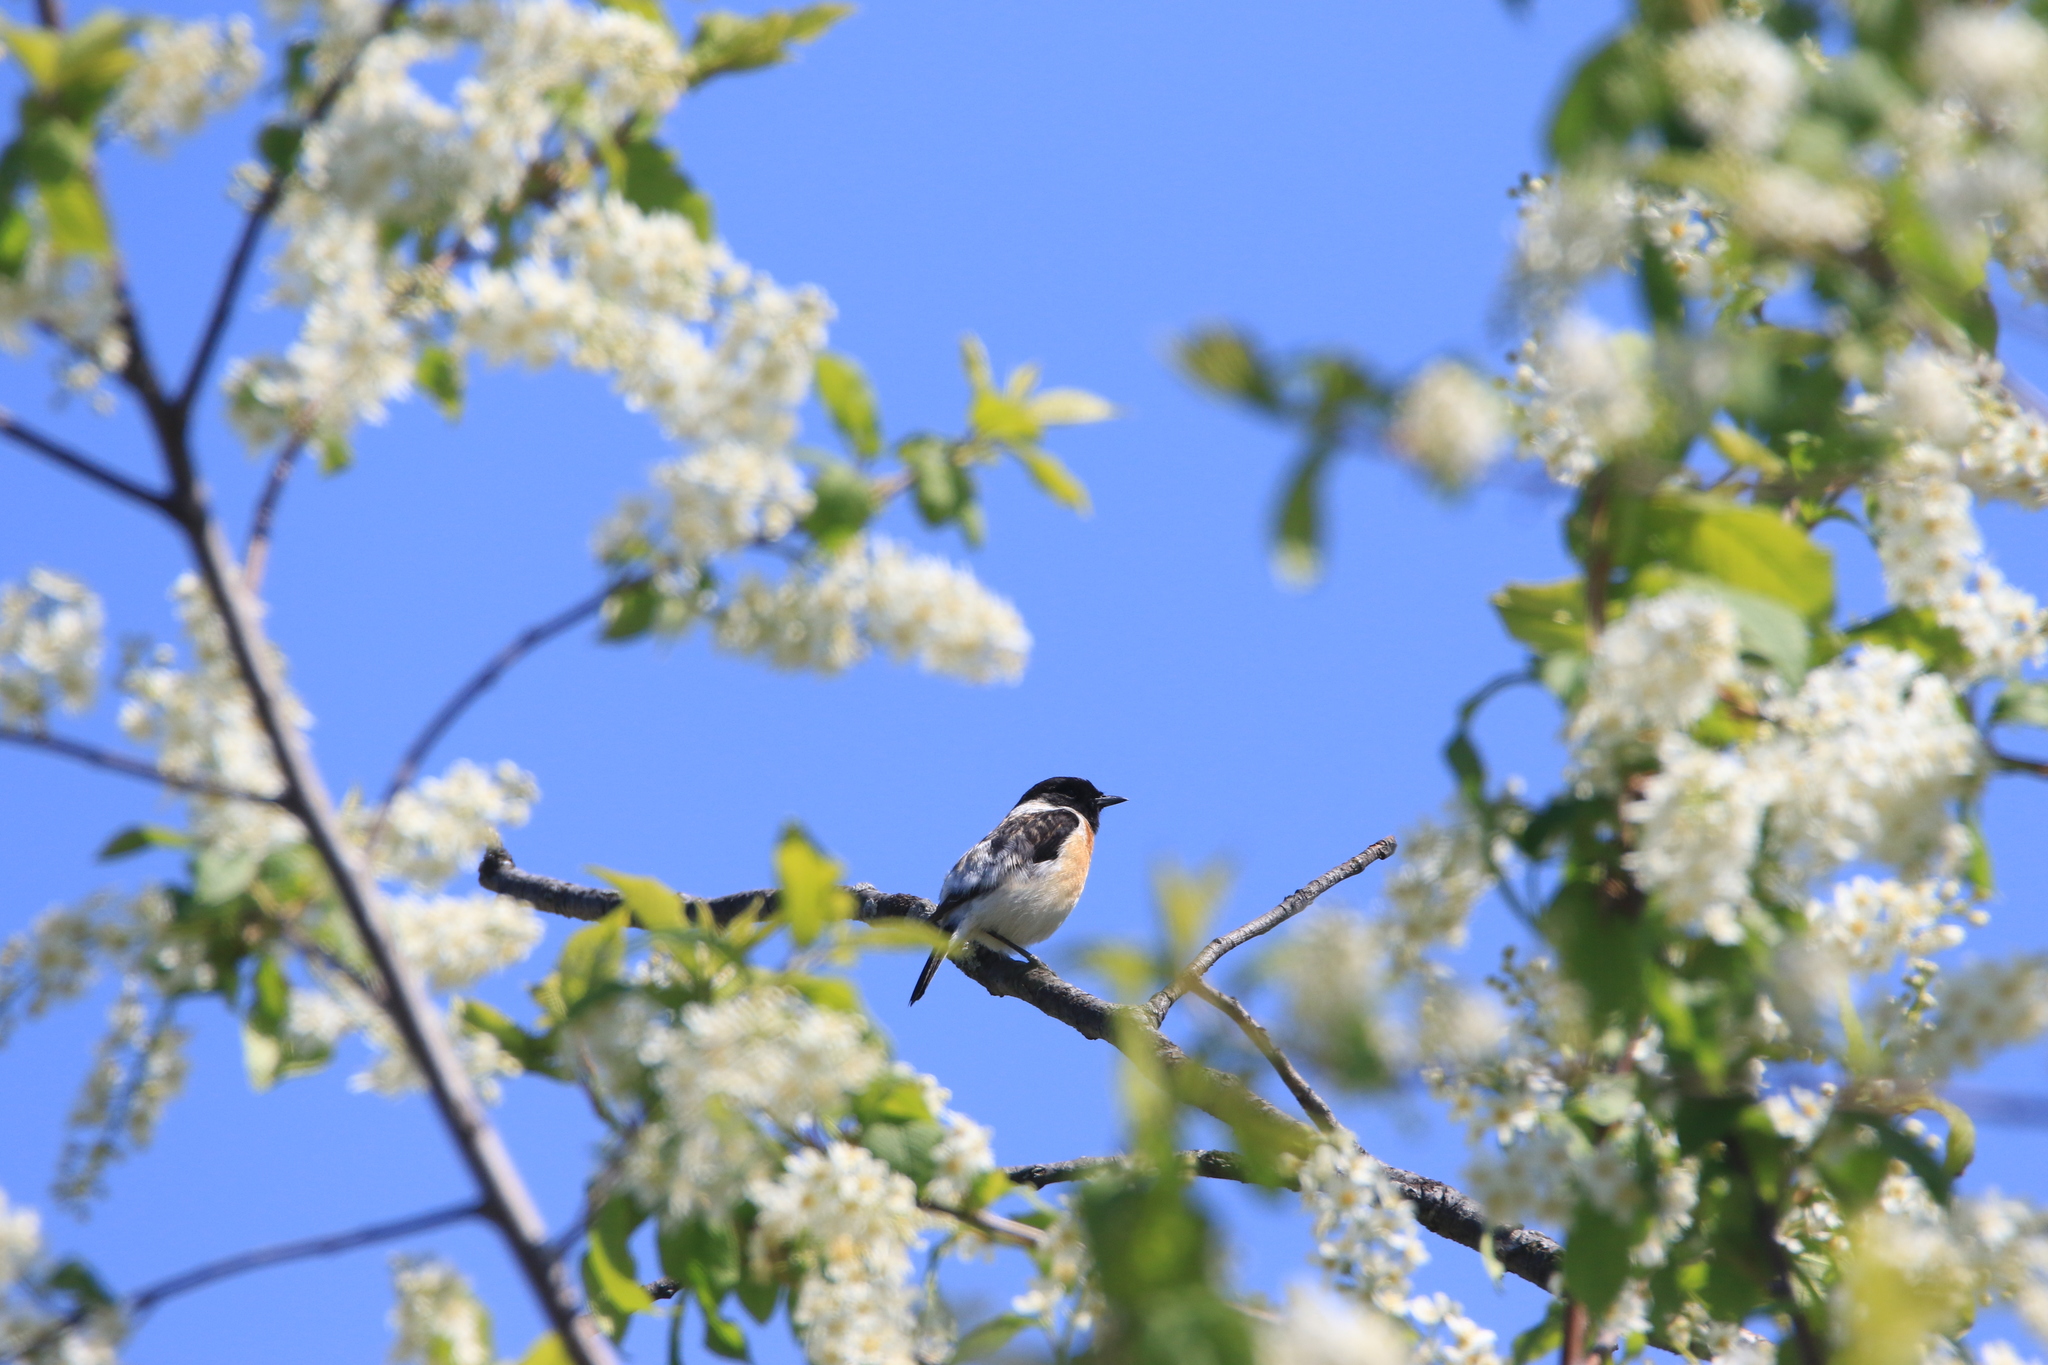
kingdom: Animalia
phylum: Chordata
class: Aves
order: Passeriformes
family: Muscicapidae
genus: Saxicola
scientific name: Saxicola maurus
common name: Siberian stonechat
